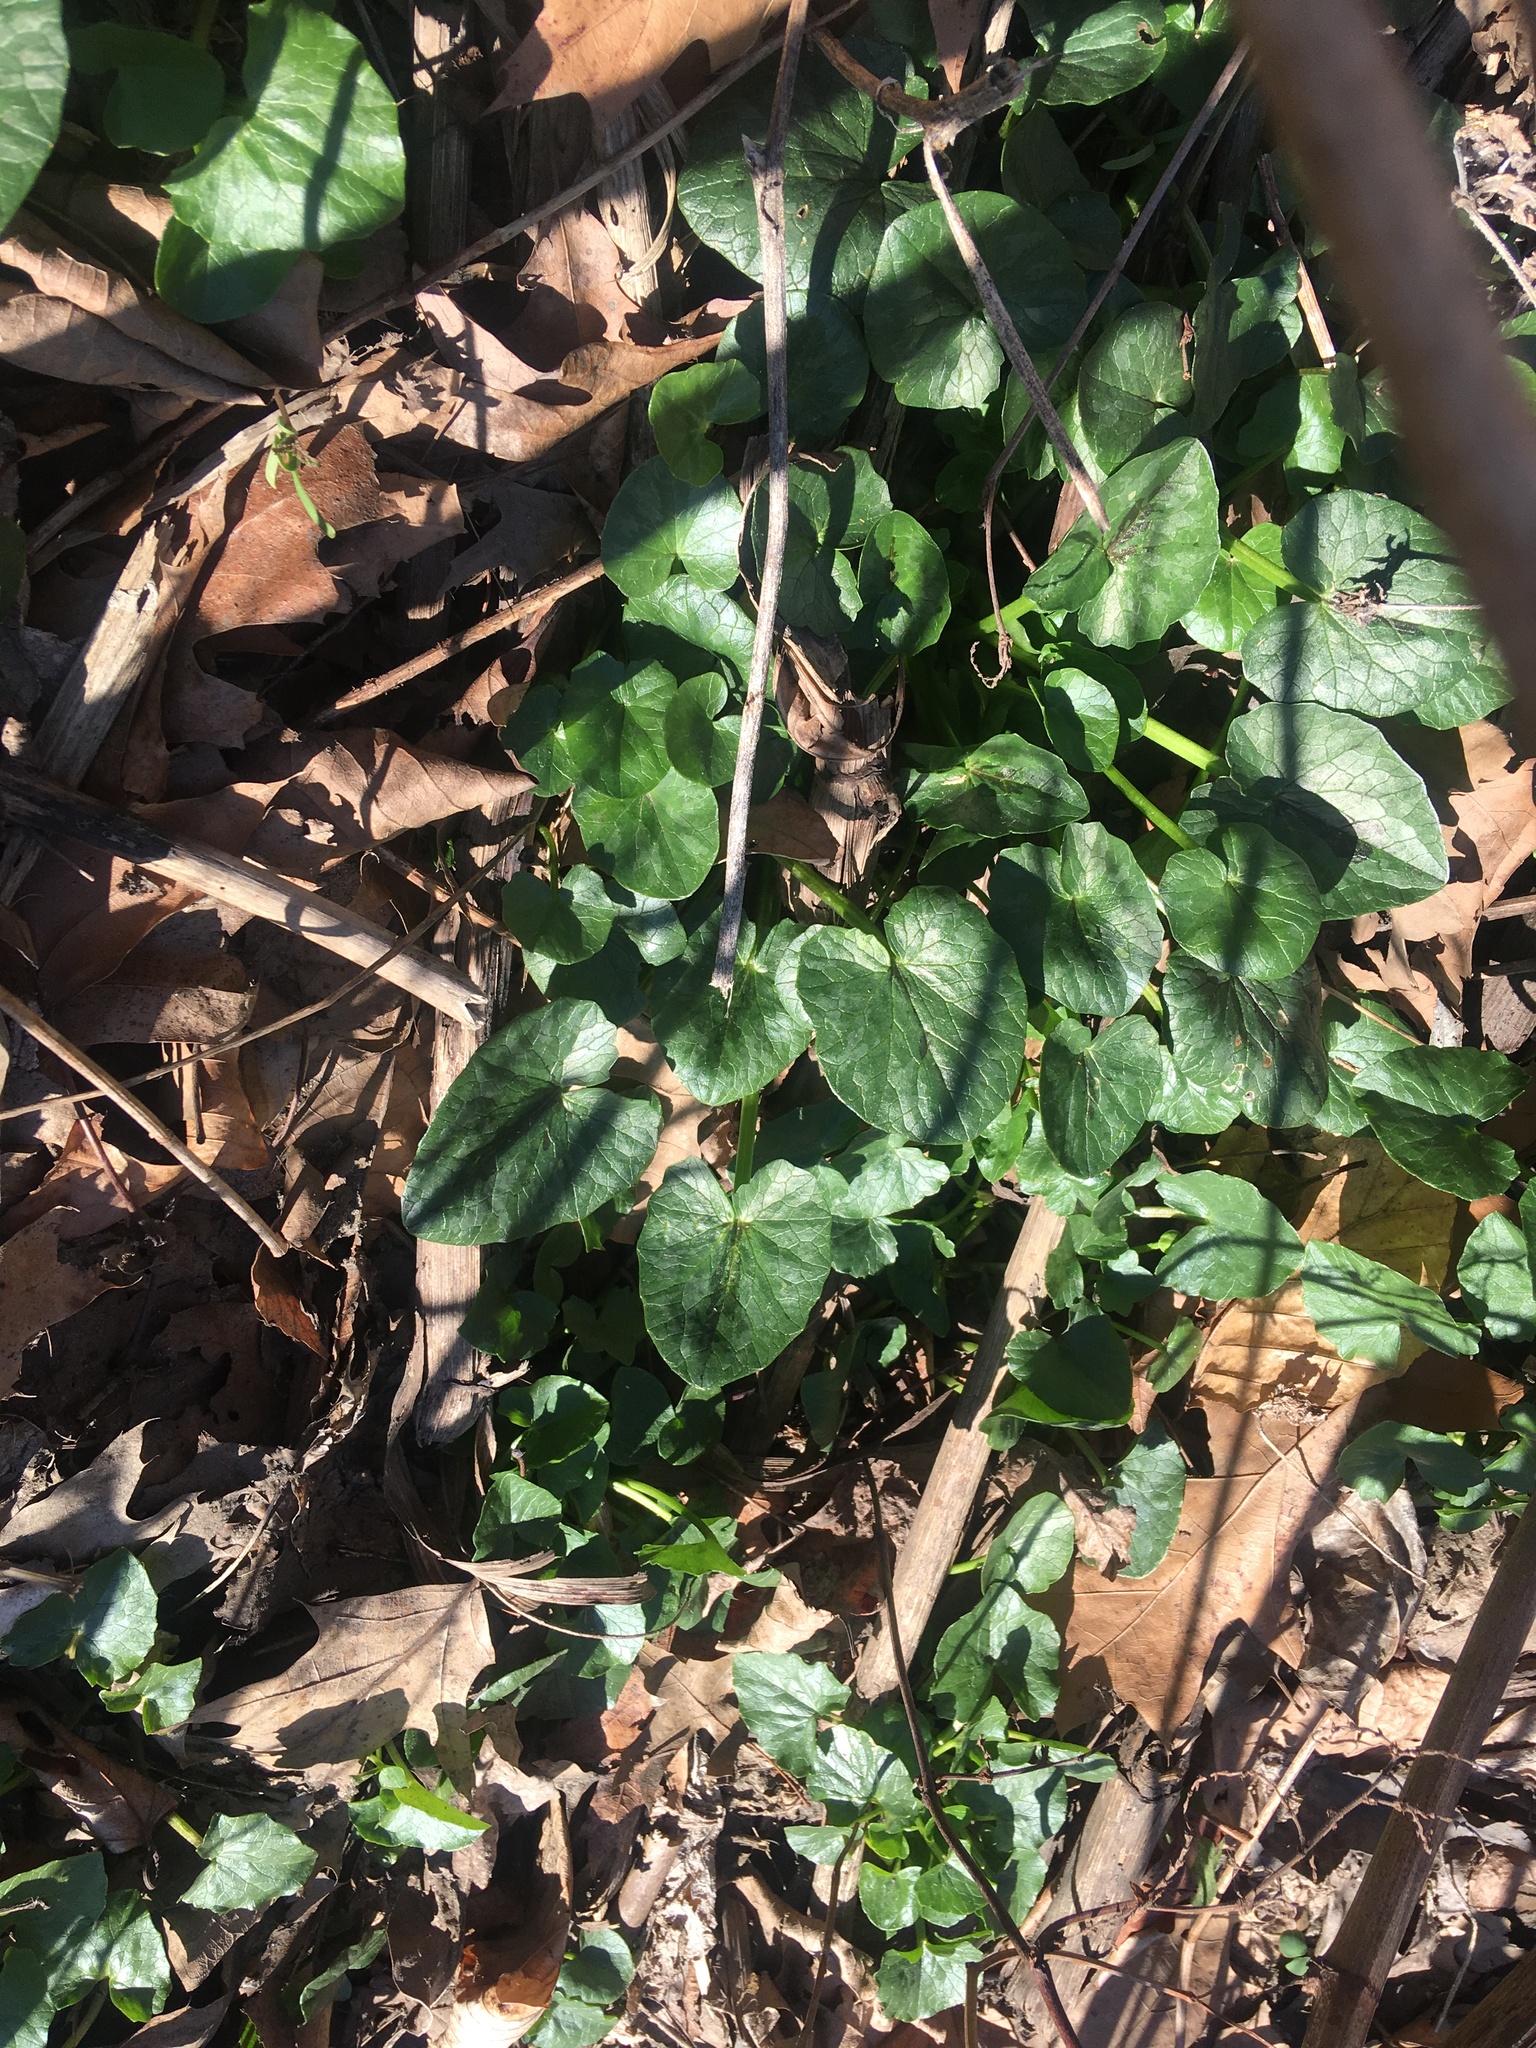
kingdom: Plantae
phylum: Tracheophyta
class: Magnoliopsida
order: Ranunculales
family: Ranunculaceae
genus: Ficaria
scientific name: Ficaria verna
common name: Lesser celandine
